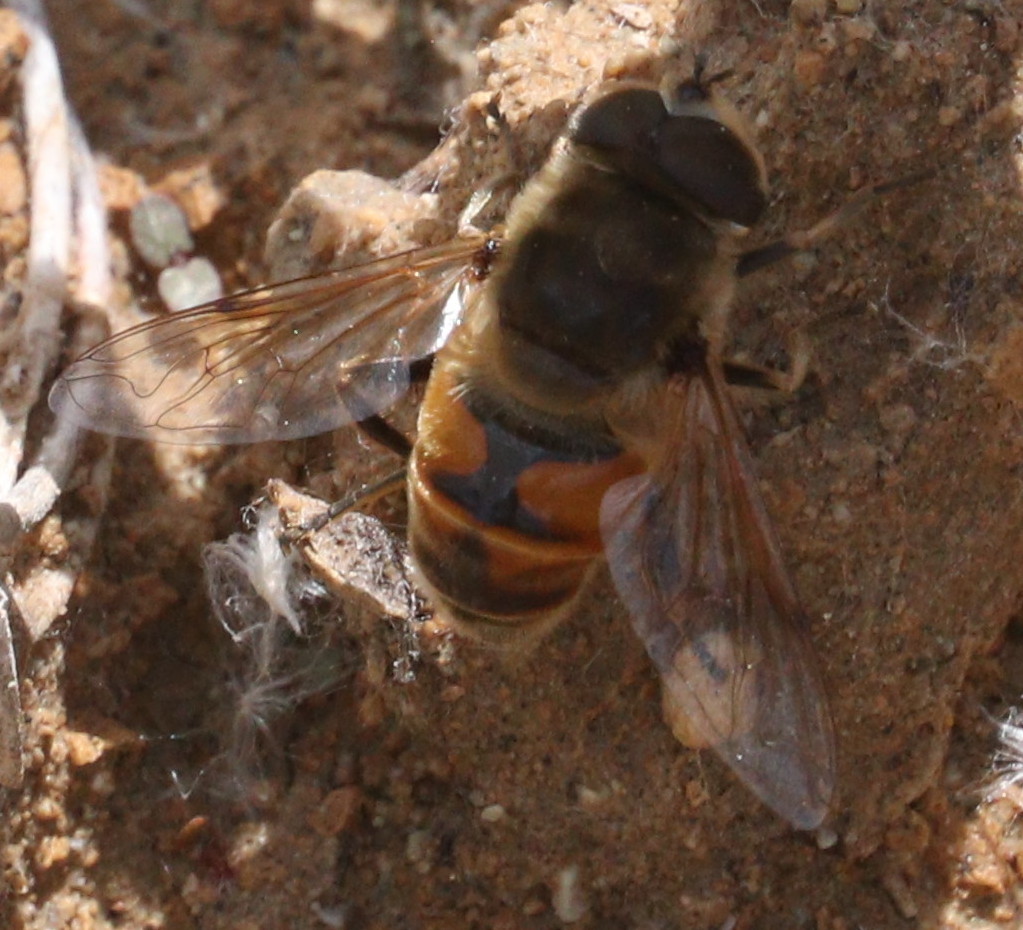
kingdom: Animalia
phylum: Arthropoda
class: Insecta
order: Diptera
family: Syrphidae
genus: Eristalis
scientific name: Eristalis tenax
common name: Drone fly
